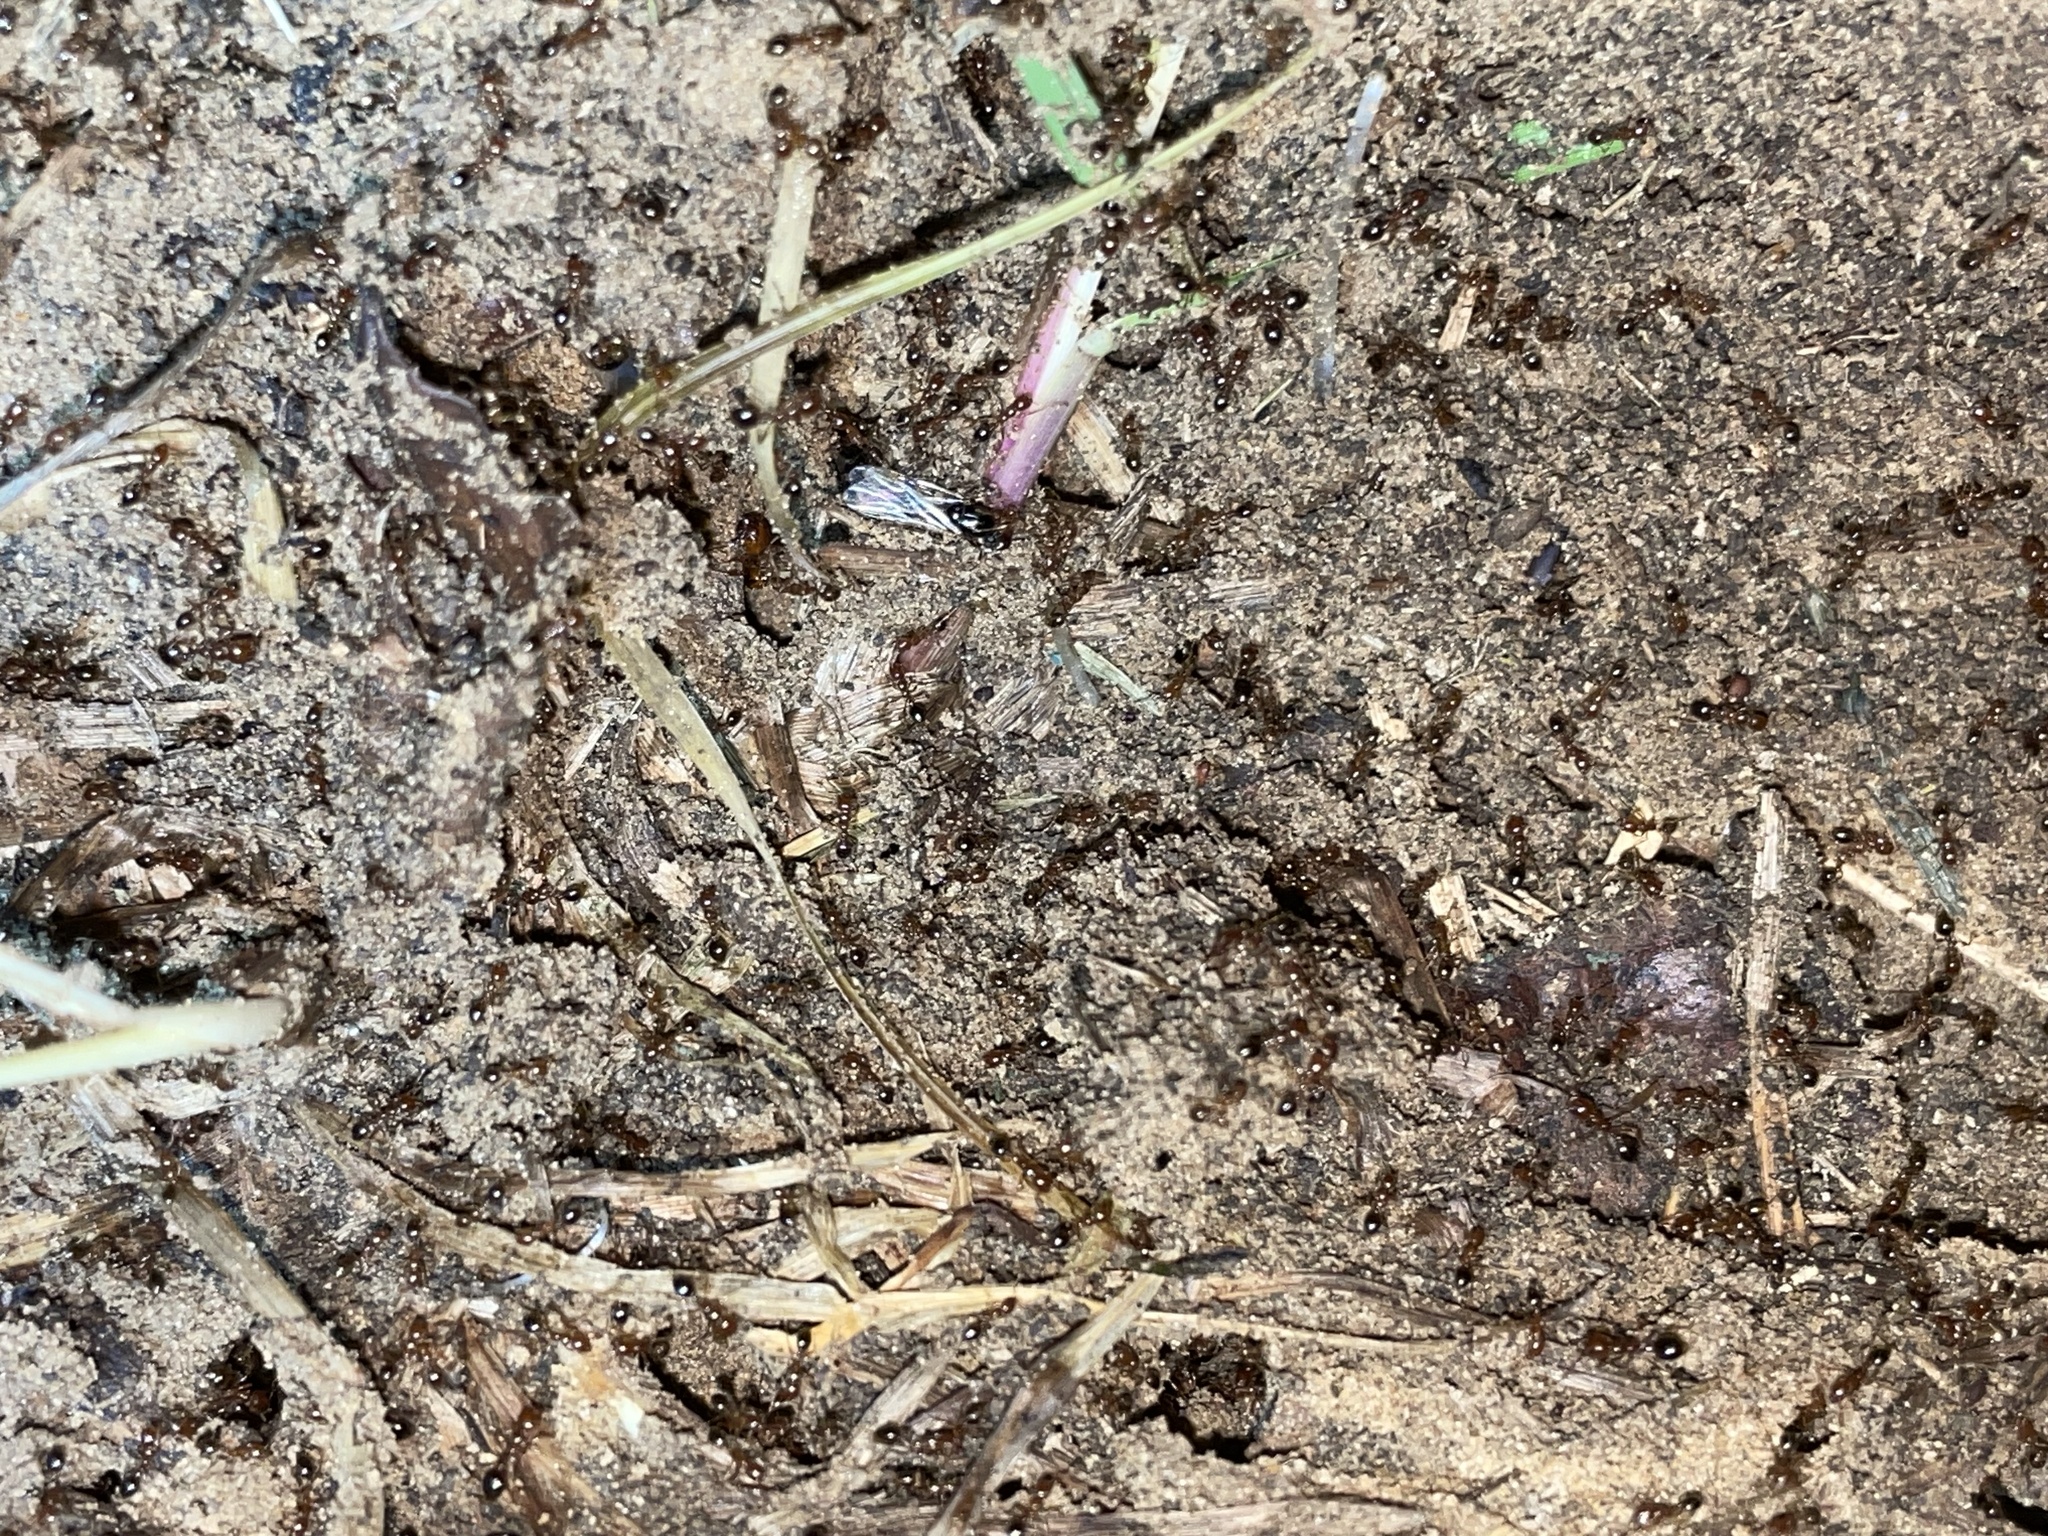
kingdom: Animalia
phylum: Arthropoda
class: Insecta
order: Hymenoptera
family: Formicidae
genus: Solenopsis
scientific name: Solenopsis invicta
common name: Red imported fire ant
